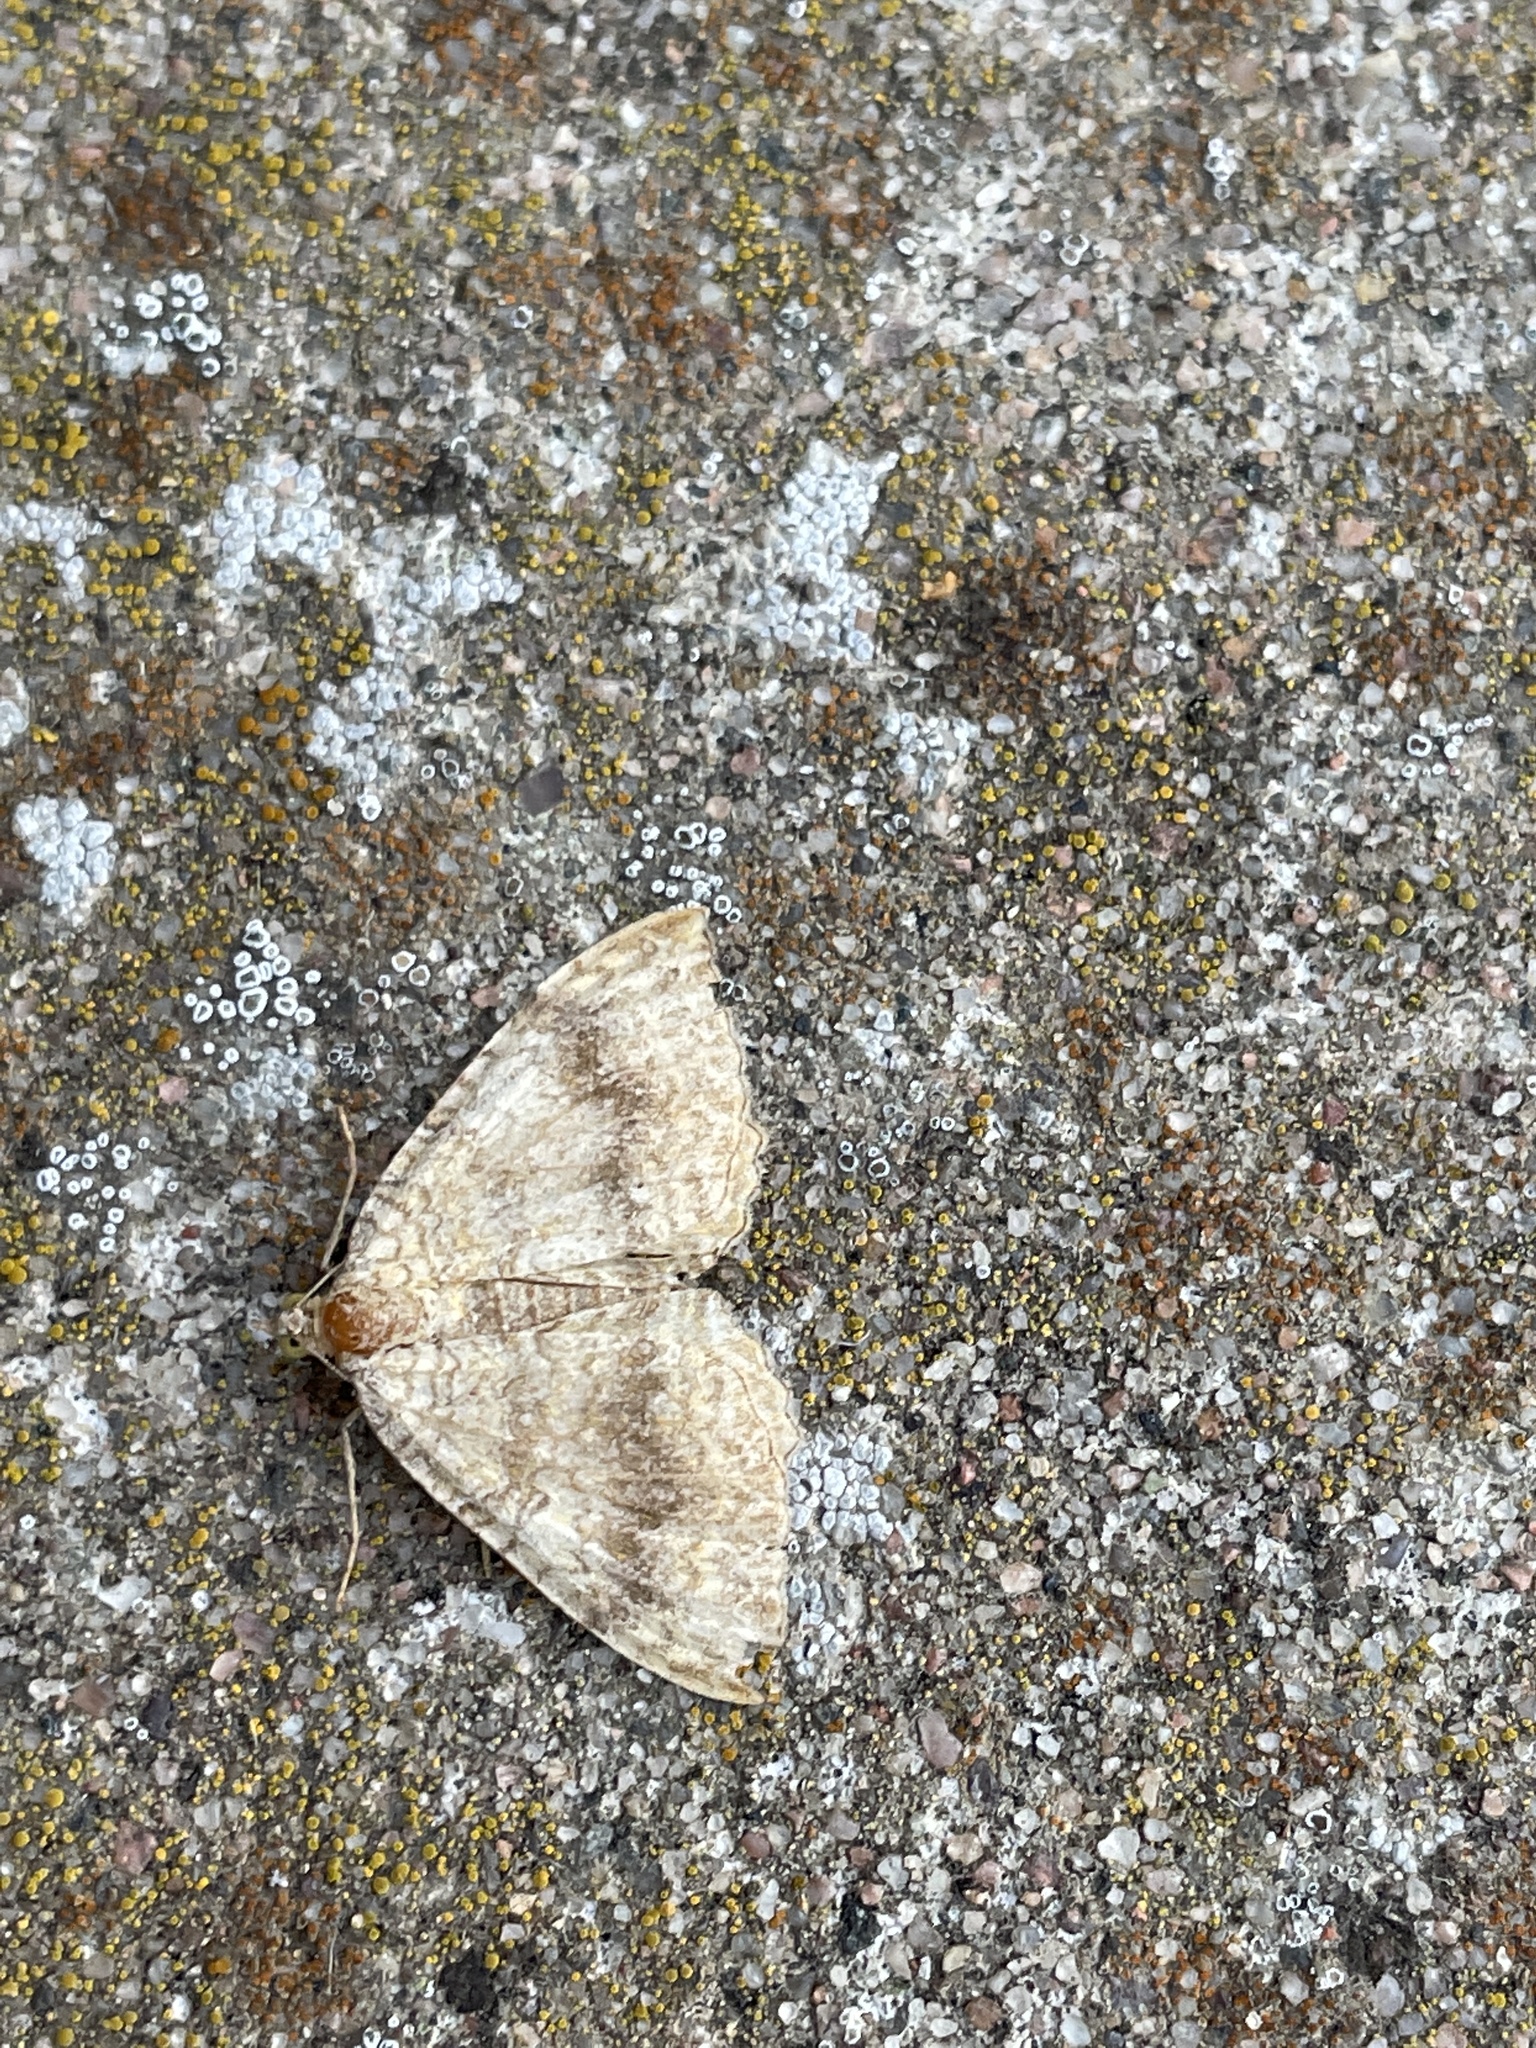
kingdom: Animalia
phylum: Arthropoda
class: Insecta
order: Lepidoptera
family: Geometridae
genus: Camptogramma
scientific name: Camptogramma bilineata
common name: Yellow shell
